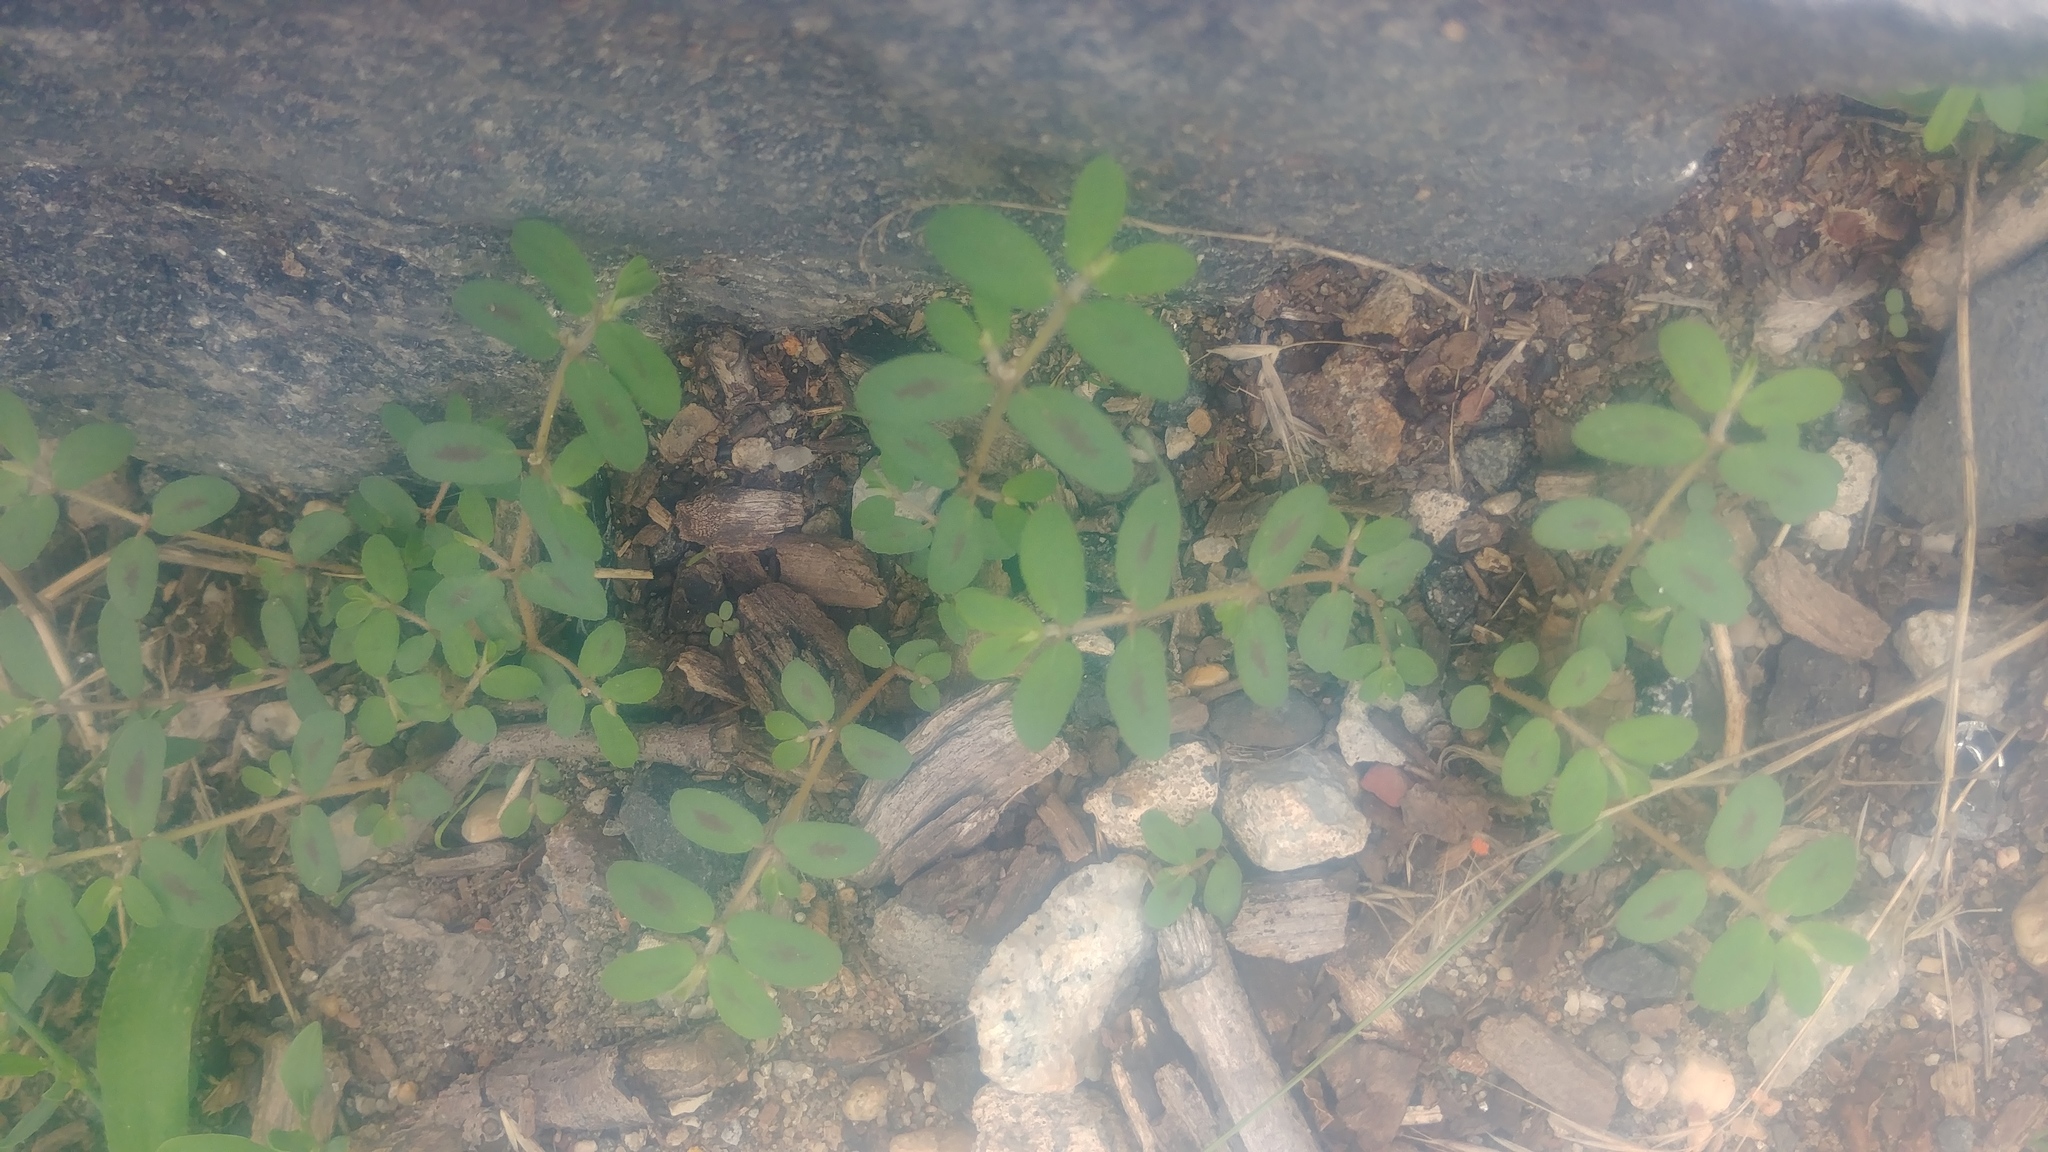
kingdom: Plantae
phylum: Tracheophyta
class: Magnoliopsida
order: Malpighiales
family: Euphorbiaceae
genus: Euphorbia
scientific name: Euphorbia maculata
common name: Spotted spurge
